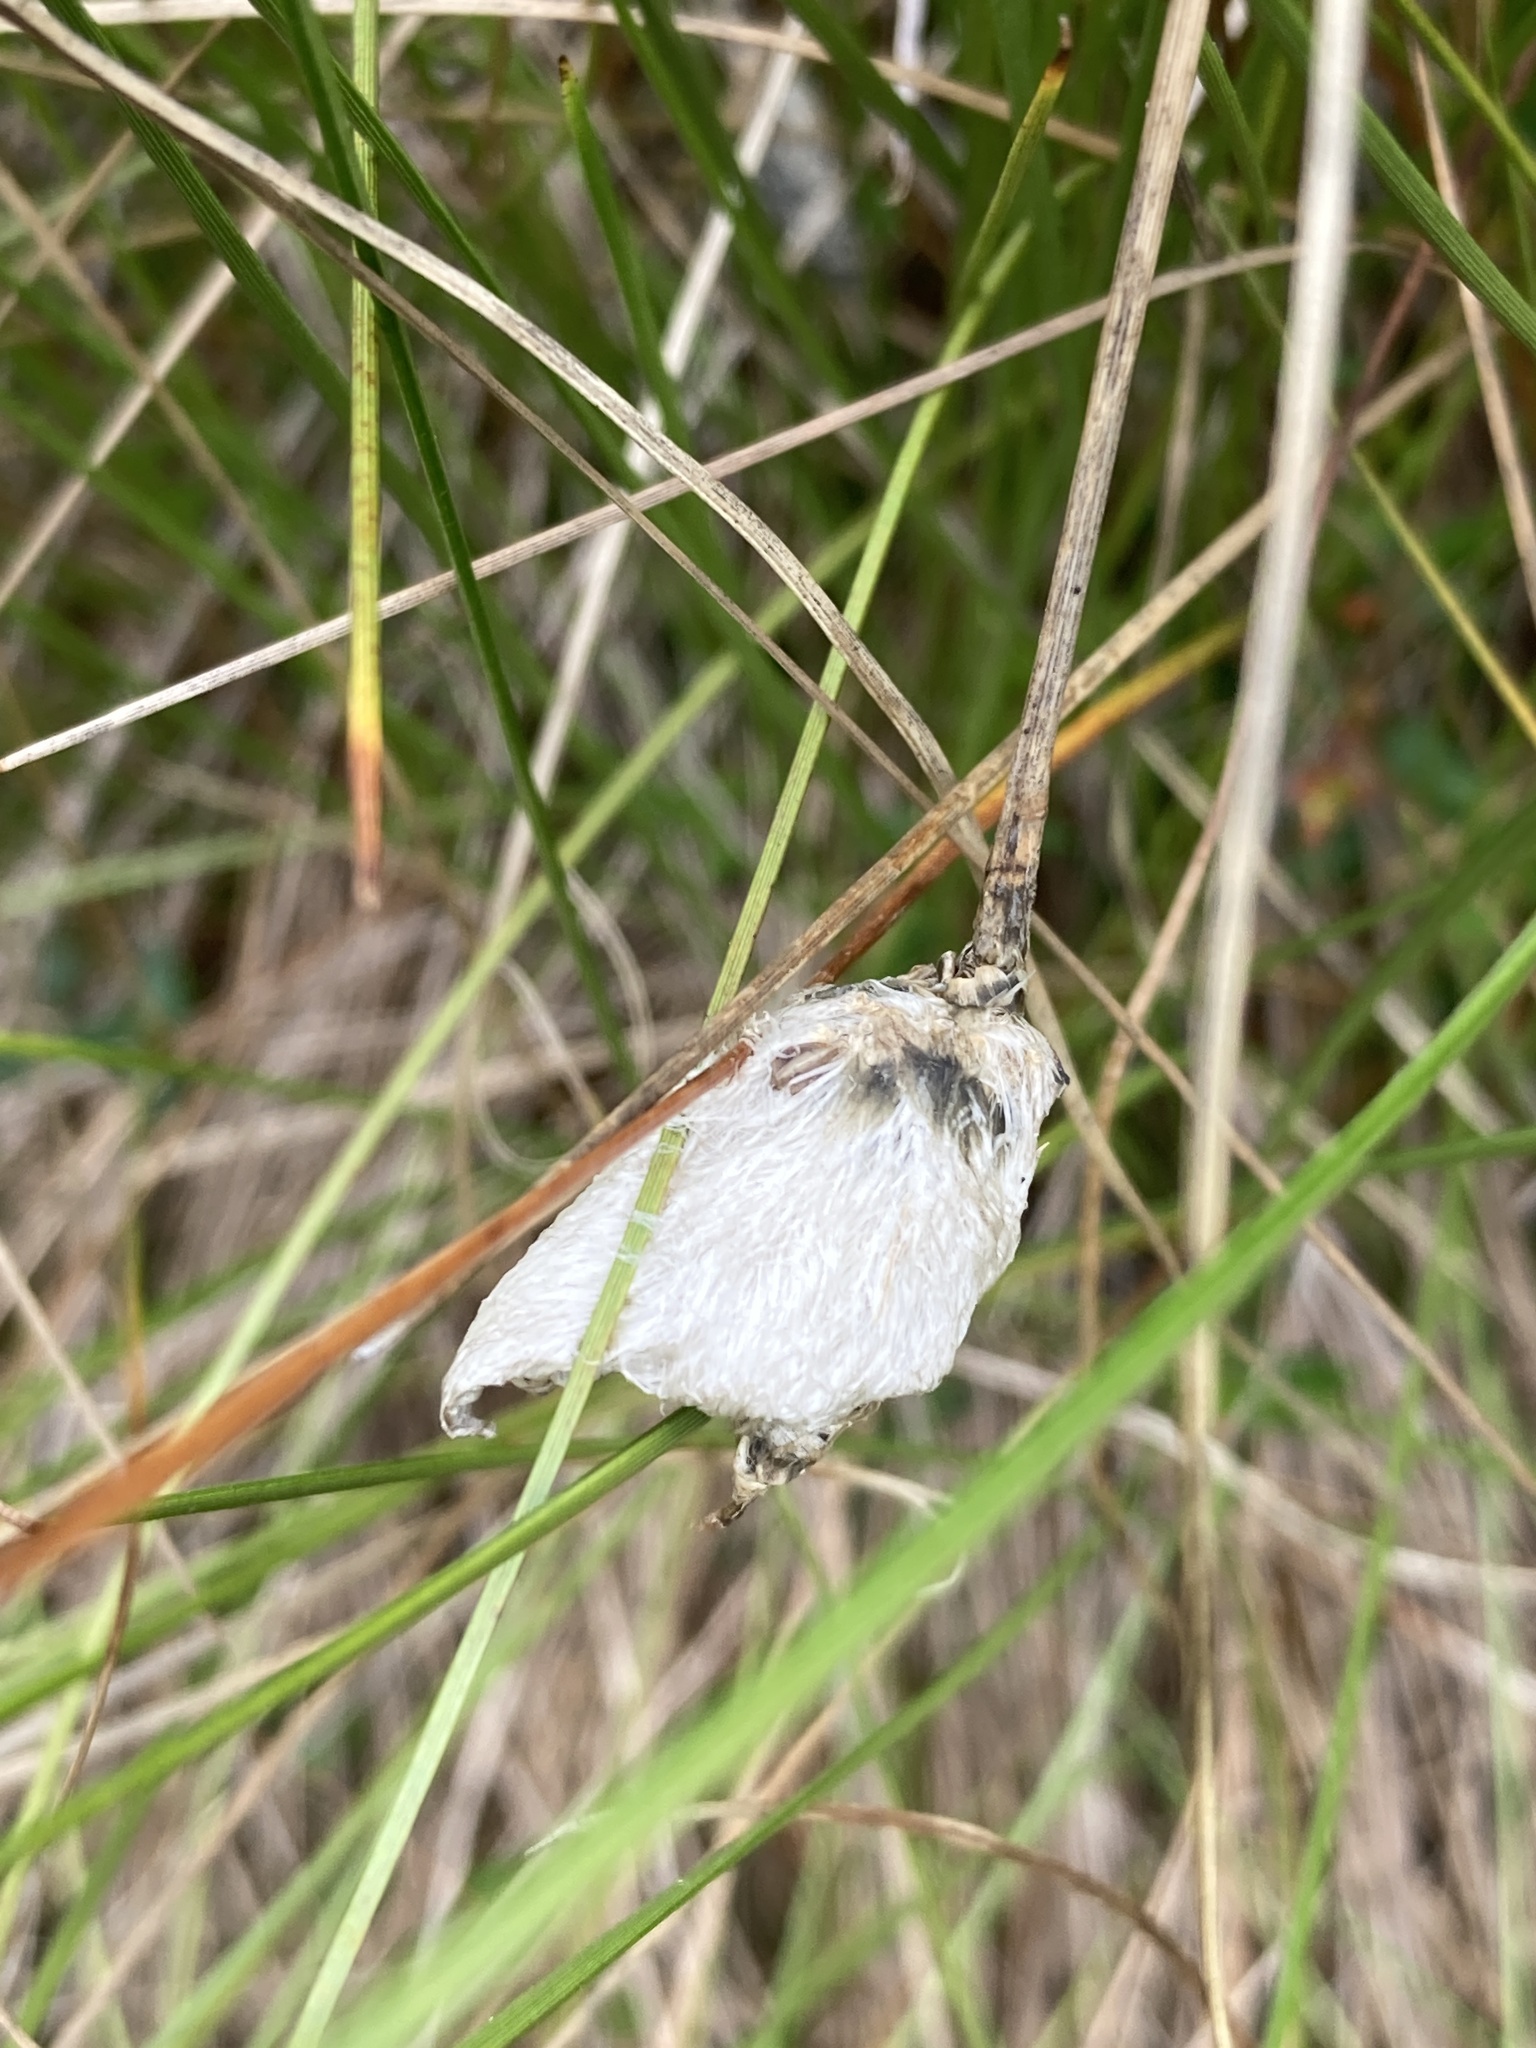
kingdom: Plantae
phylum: Tracheophyta
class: Liliopsida
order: Poales
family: Cyperaceae
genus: Eriophorum
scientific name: Eriophorum vaginatum
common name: Hare's-tail cottongrass
